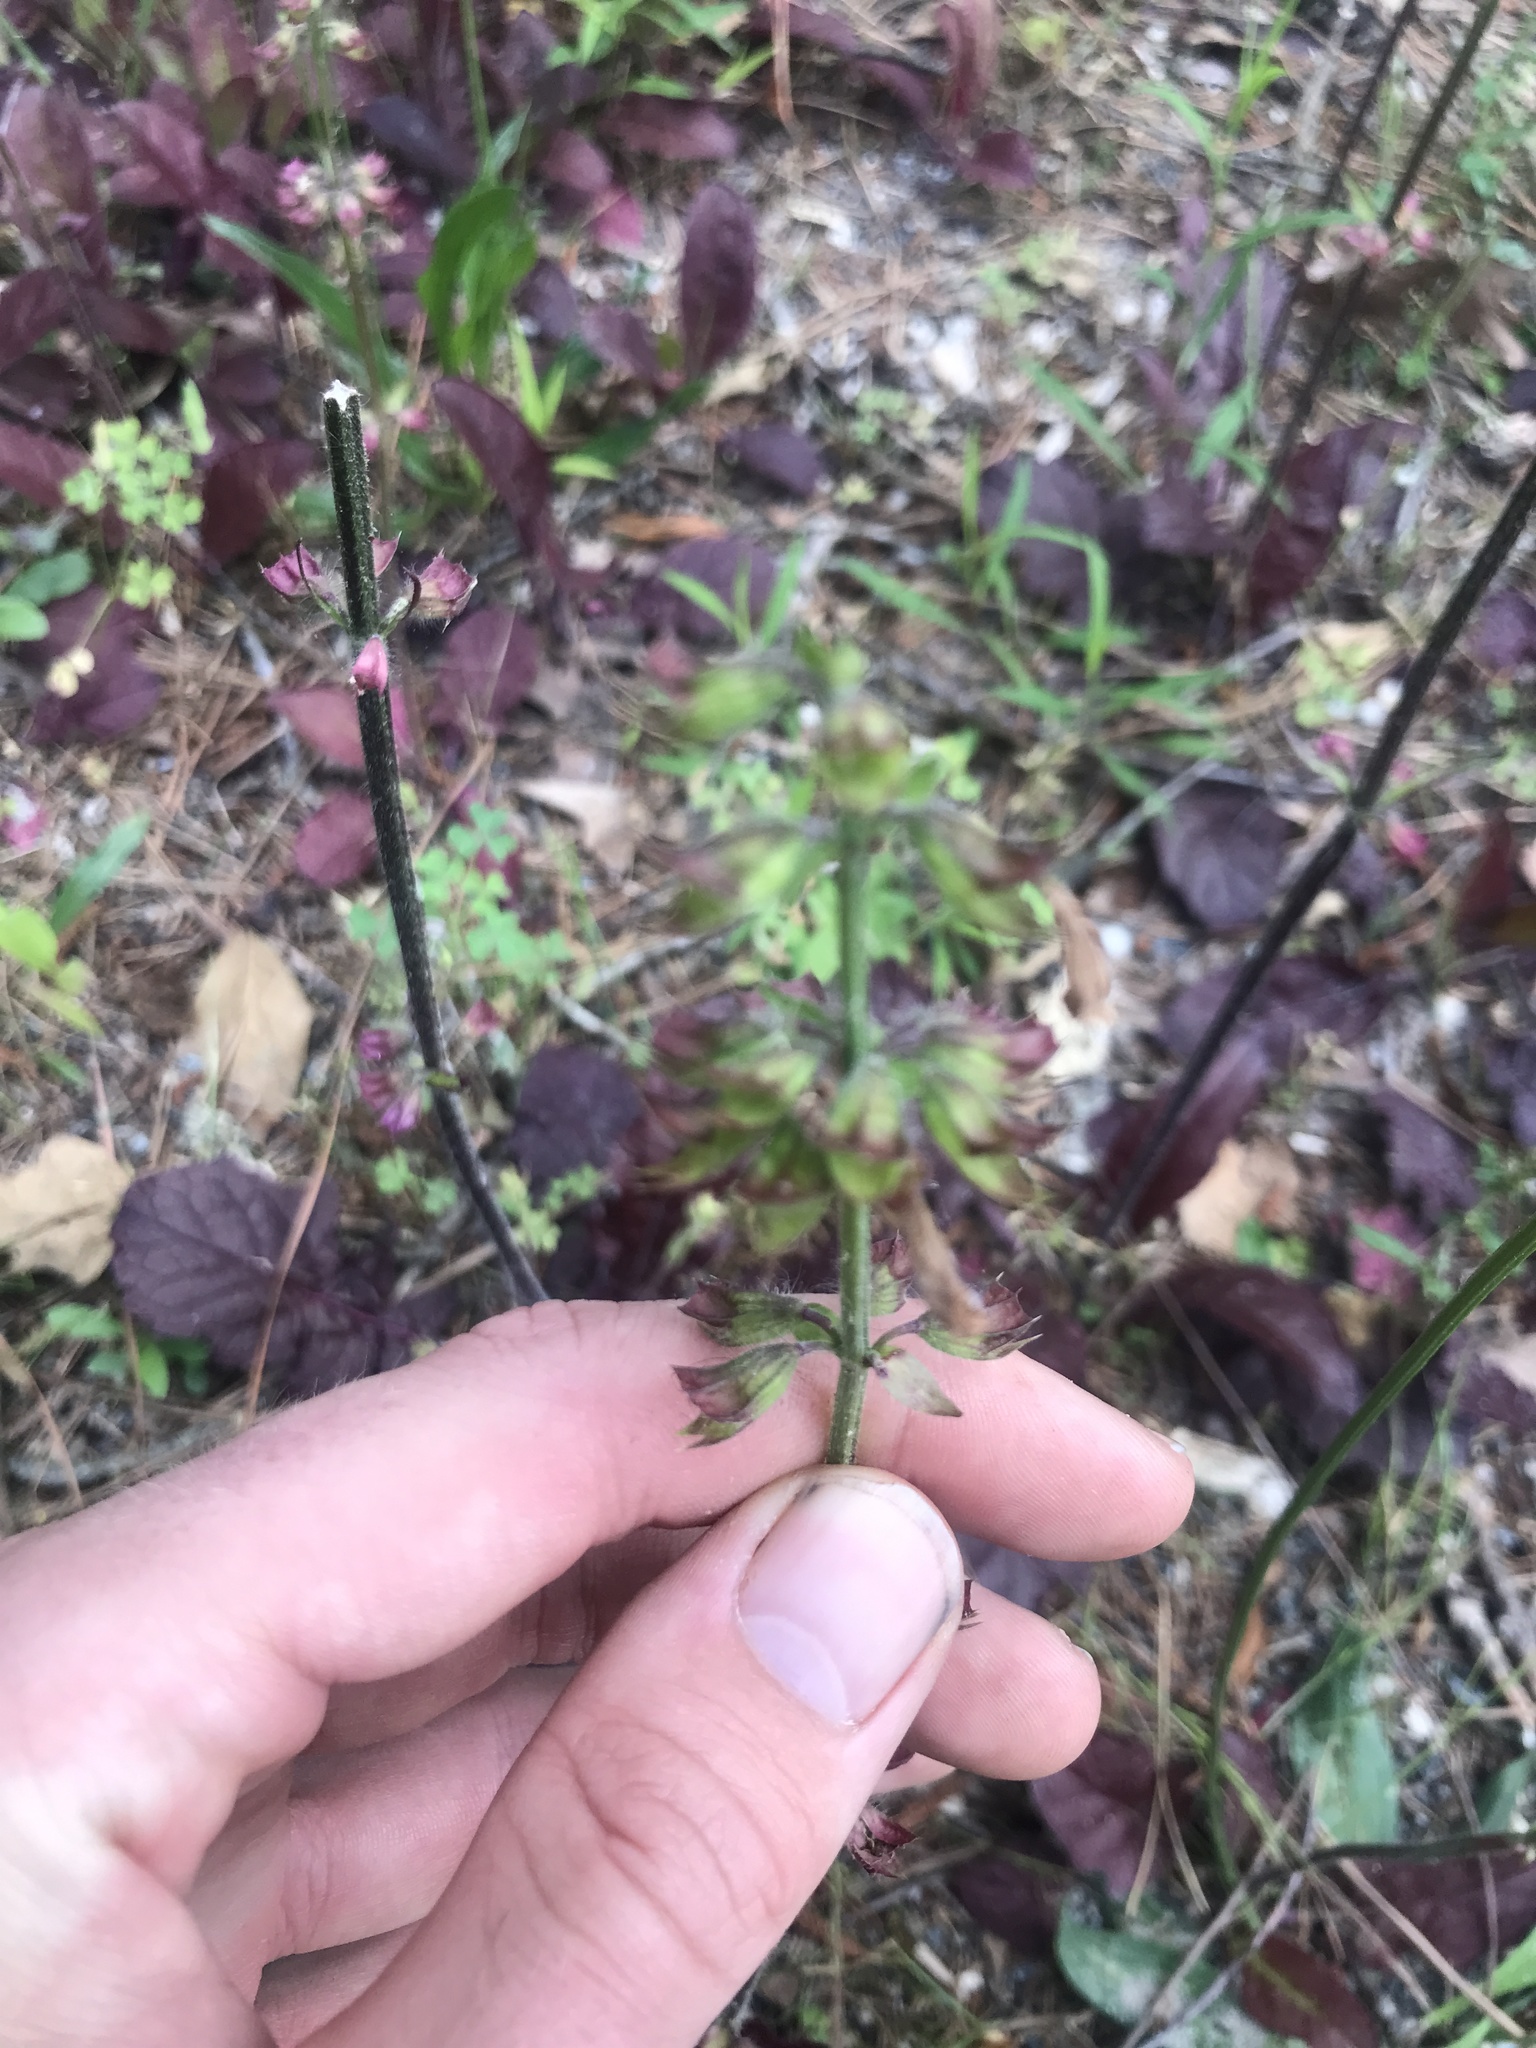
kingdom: Plantae
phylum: Tracheophyta
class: Magnoliopsida
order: Lamiales
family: Lamiaceae
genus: Salvia
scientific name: Salvia lyrata
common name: Cancerweed
